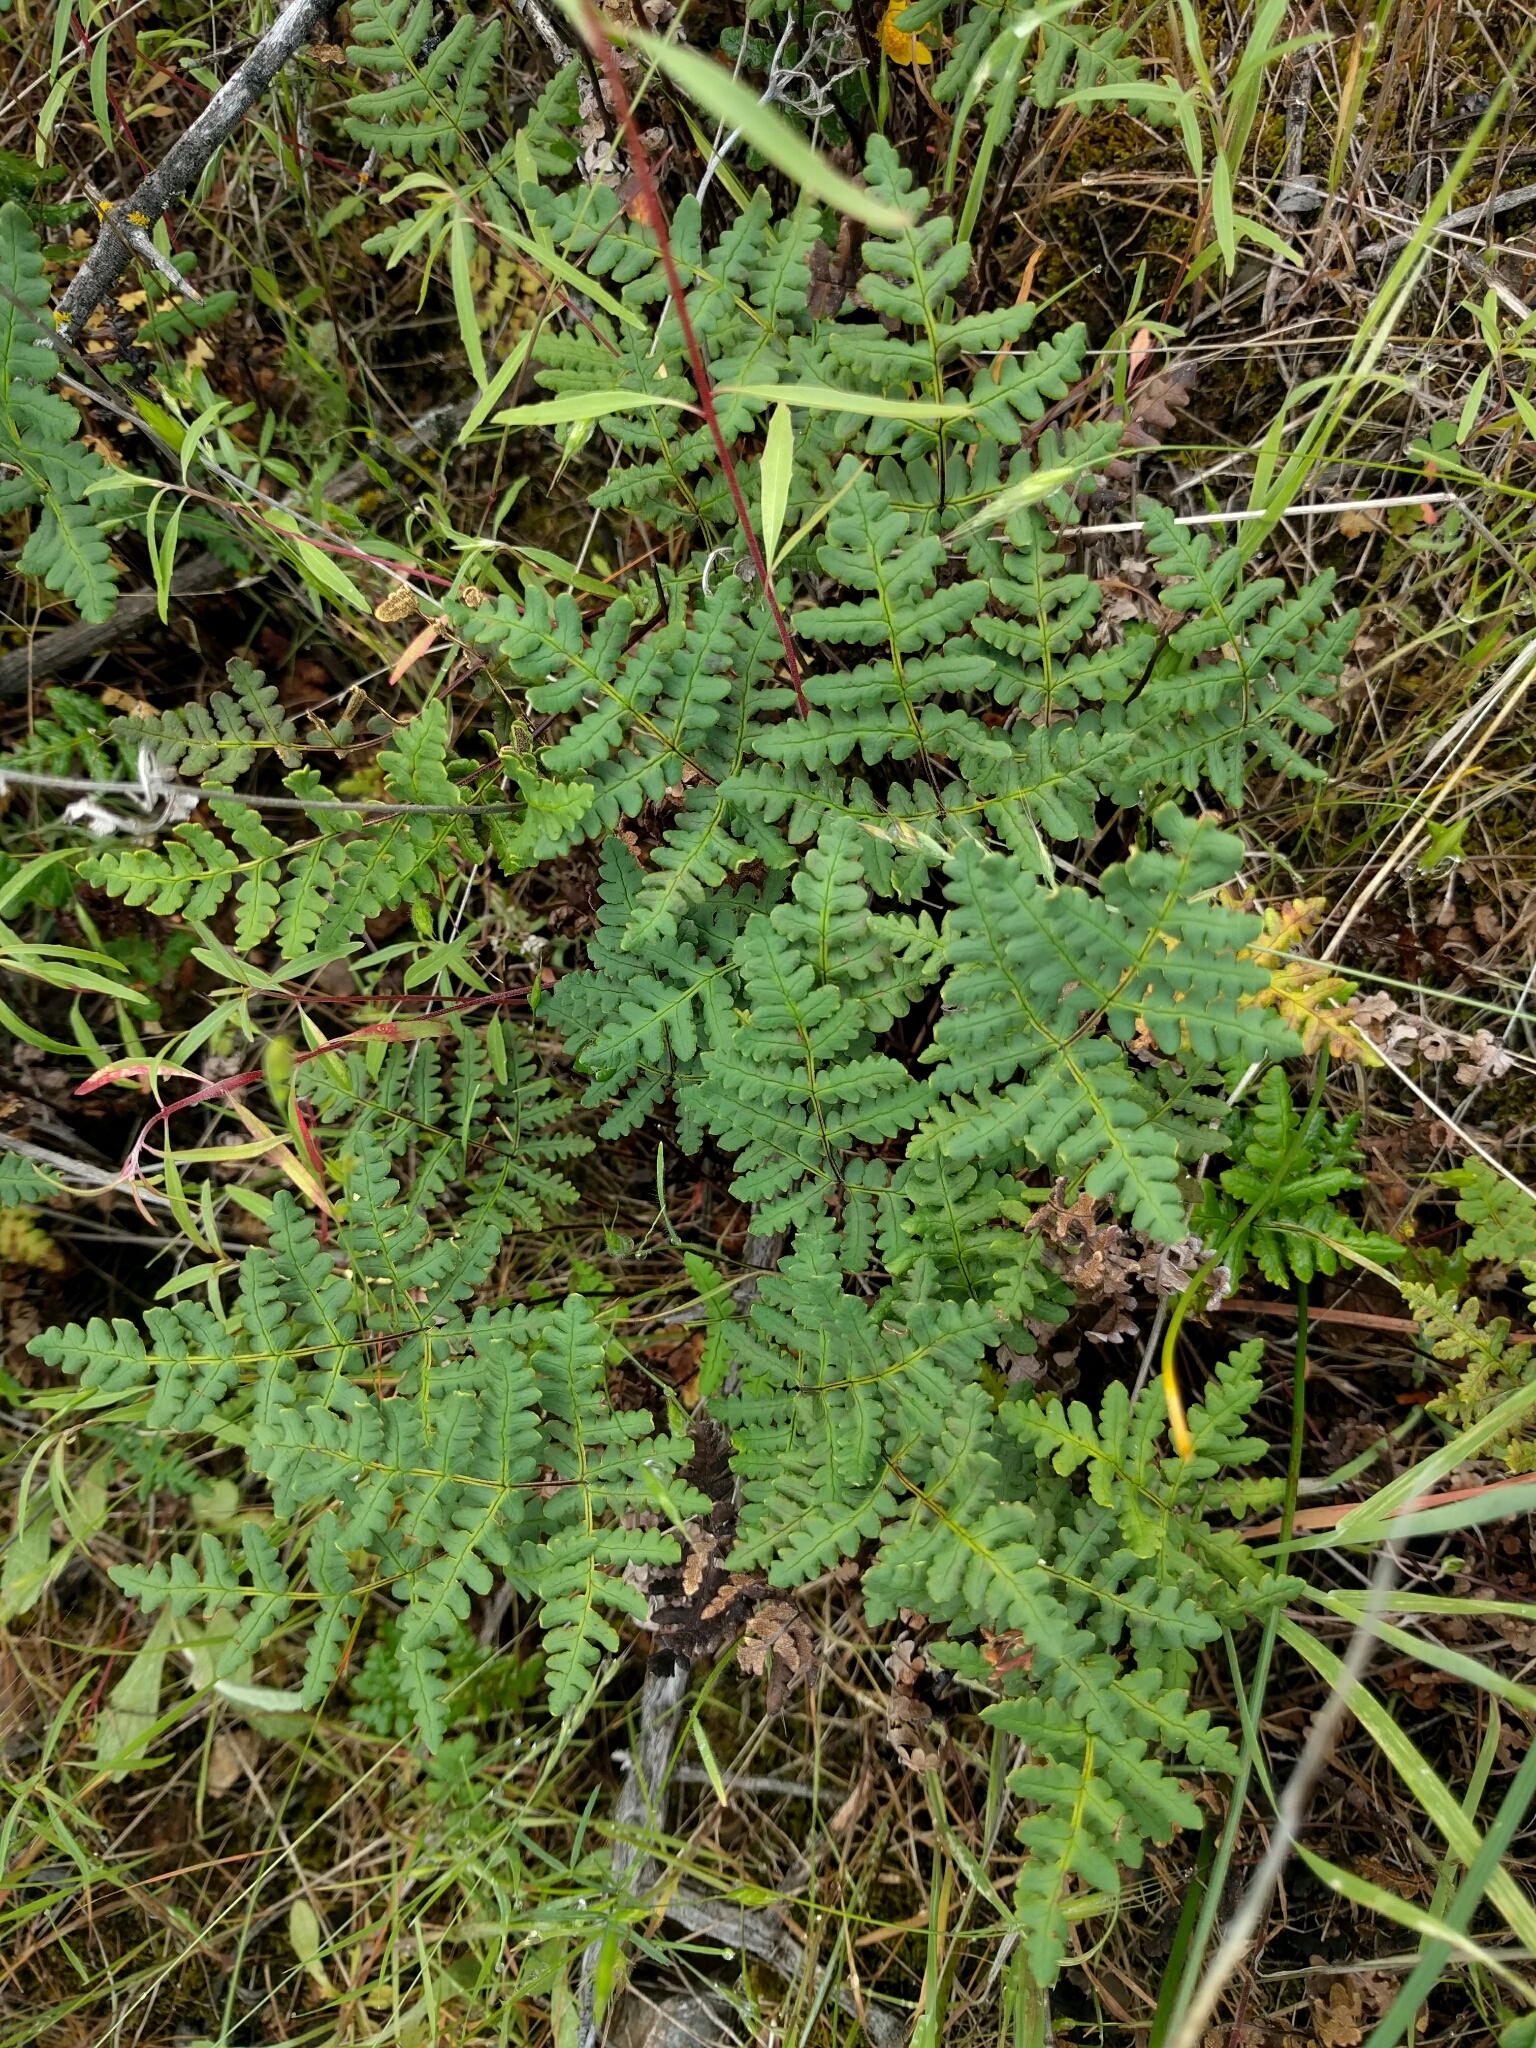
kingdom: Plantae
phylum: Tracheophyta
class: Polypodiopsida
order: Polypodiales
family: Pteridaceae
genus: Pentagramma
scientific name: Pentagramma triangularis
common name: Gold fern
